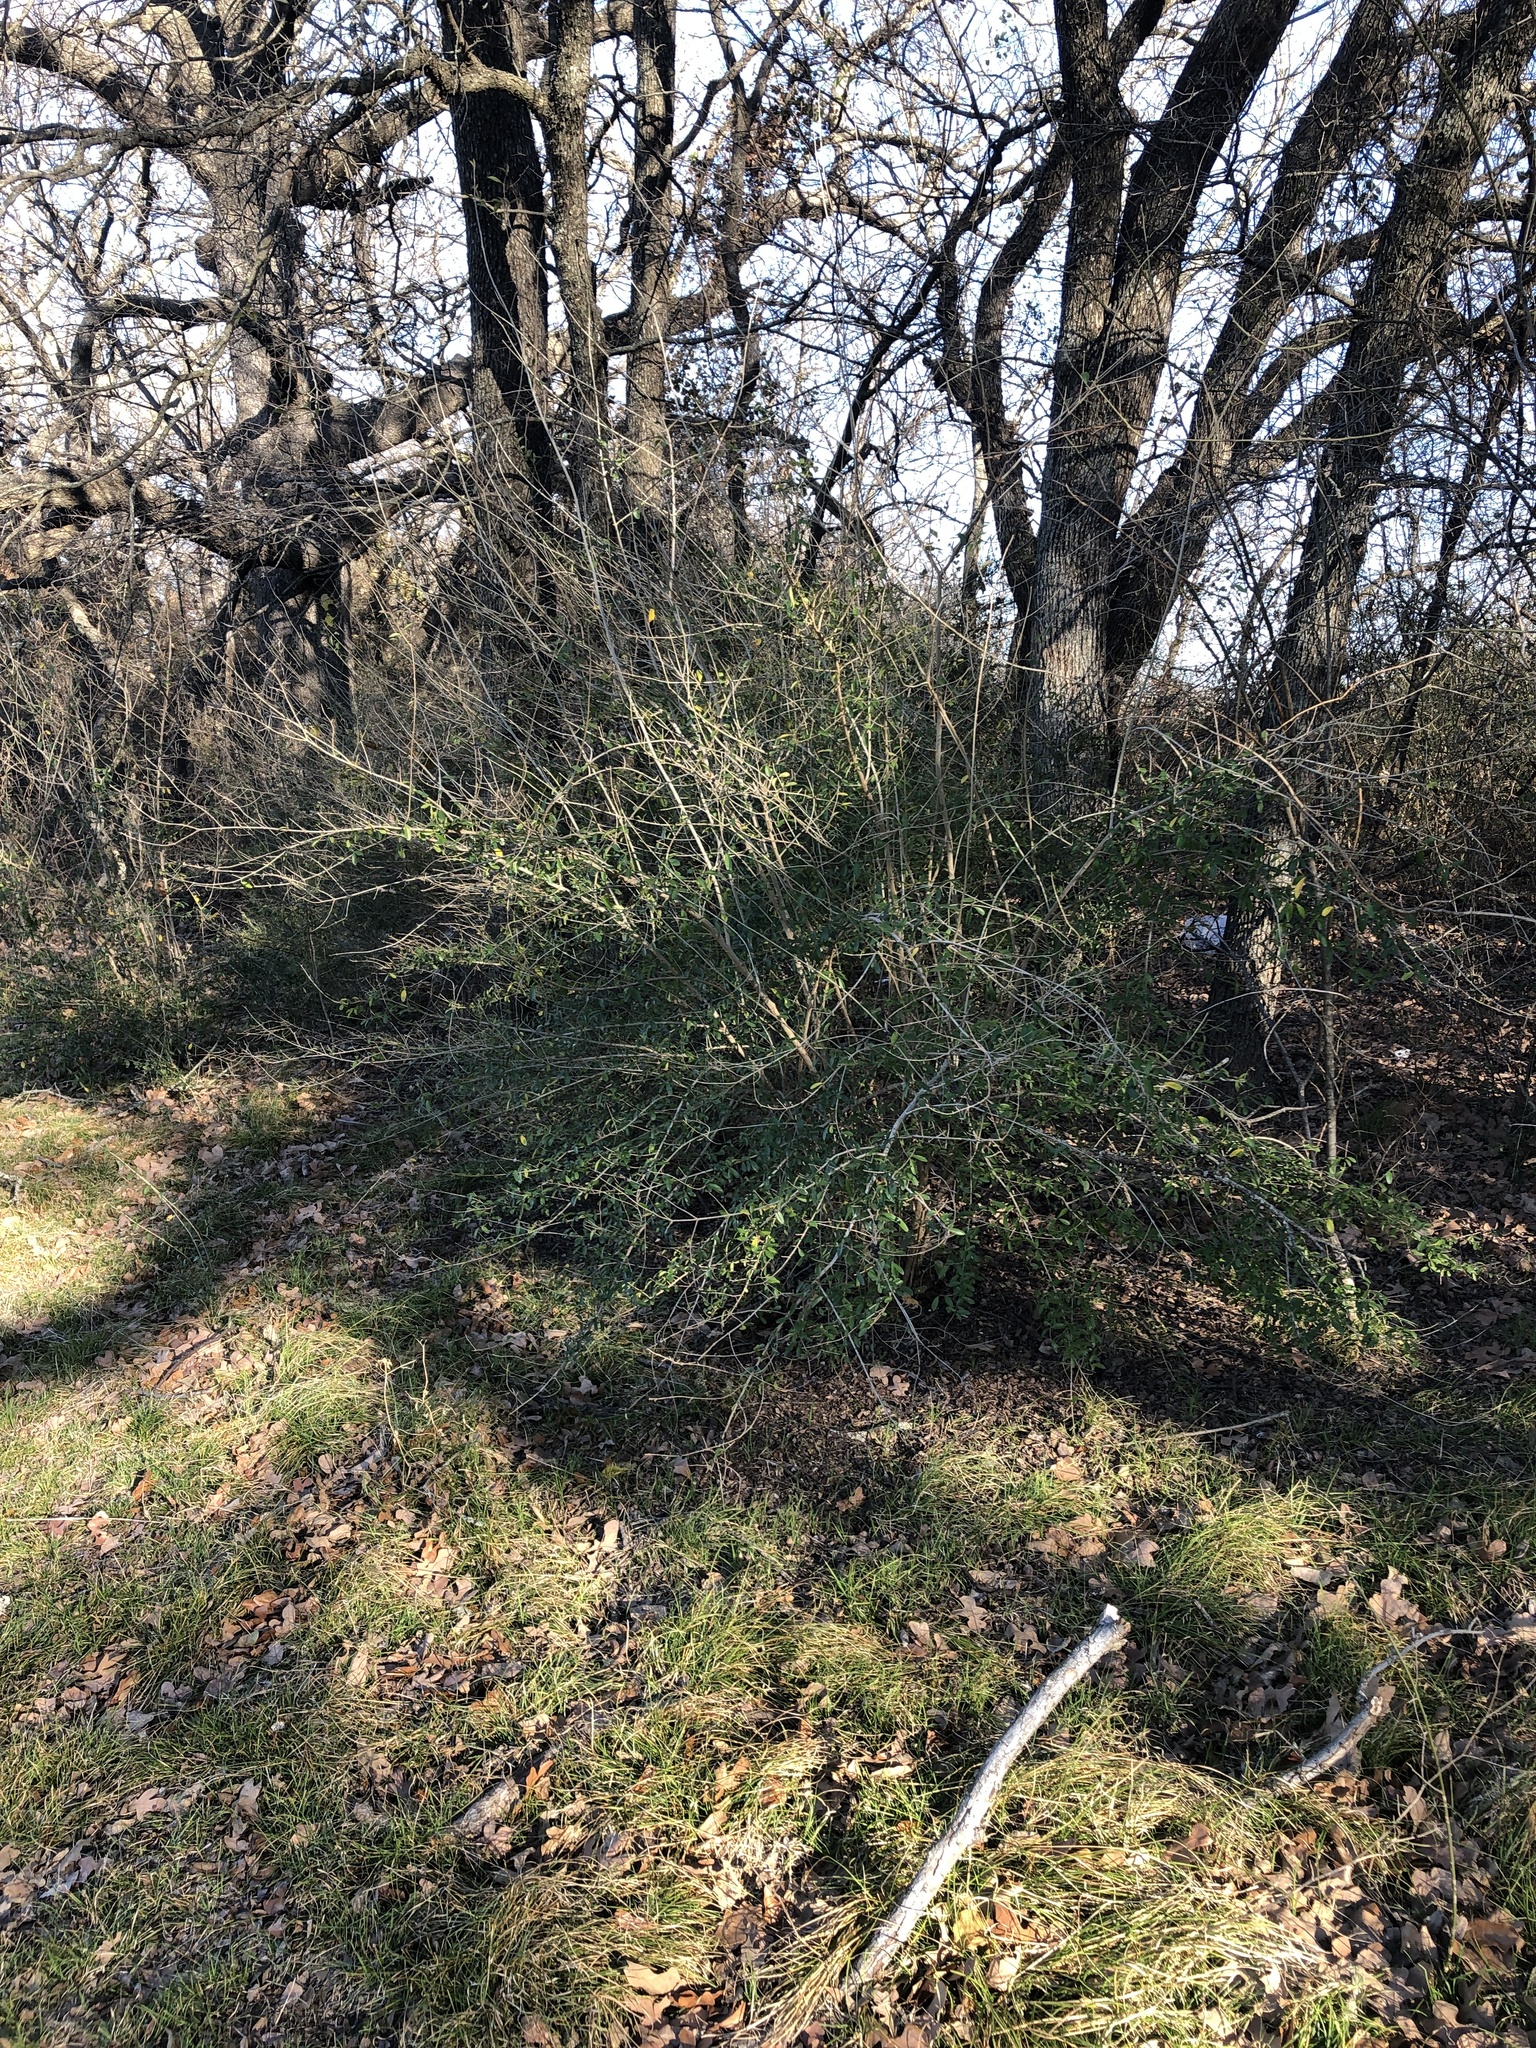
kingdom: Plantae
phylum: Tracheophyta
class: Magnoliopsida
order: Lamiales
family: Oleaceae
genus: Ligustrum
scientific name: Ligustrum quihoui
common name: Waxyleaf privet
